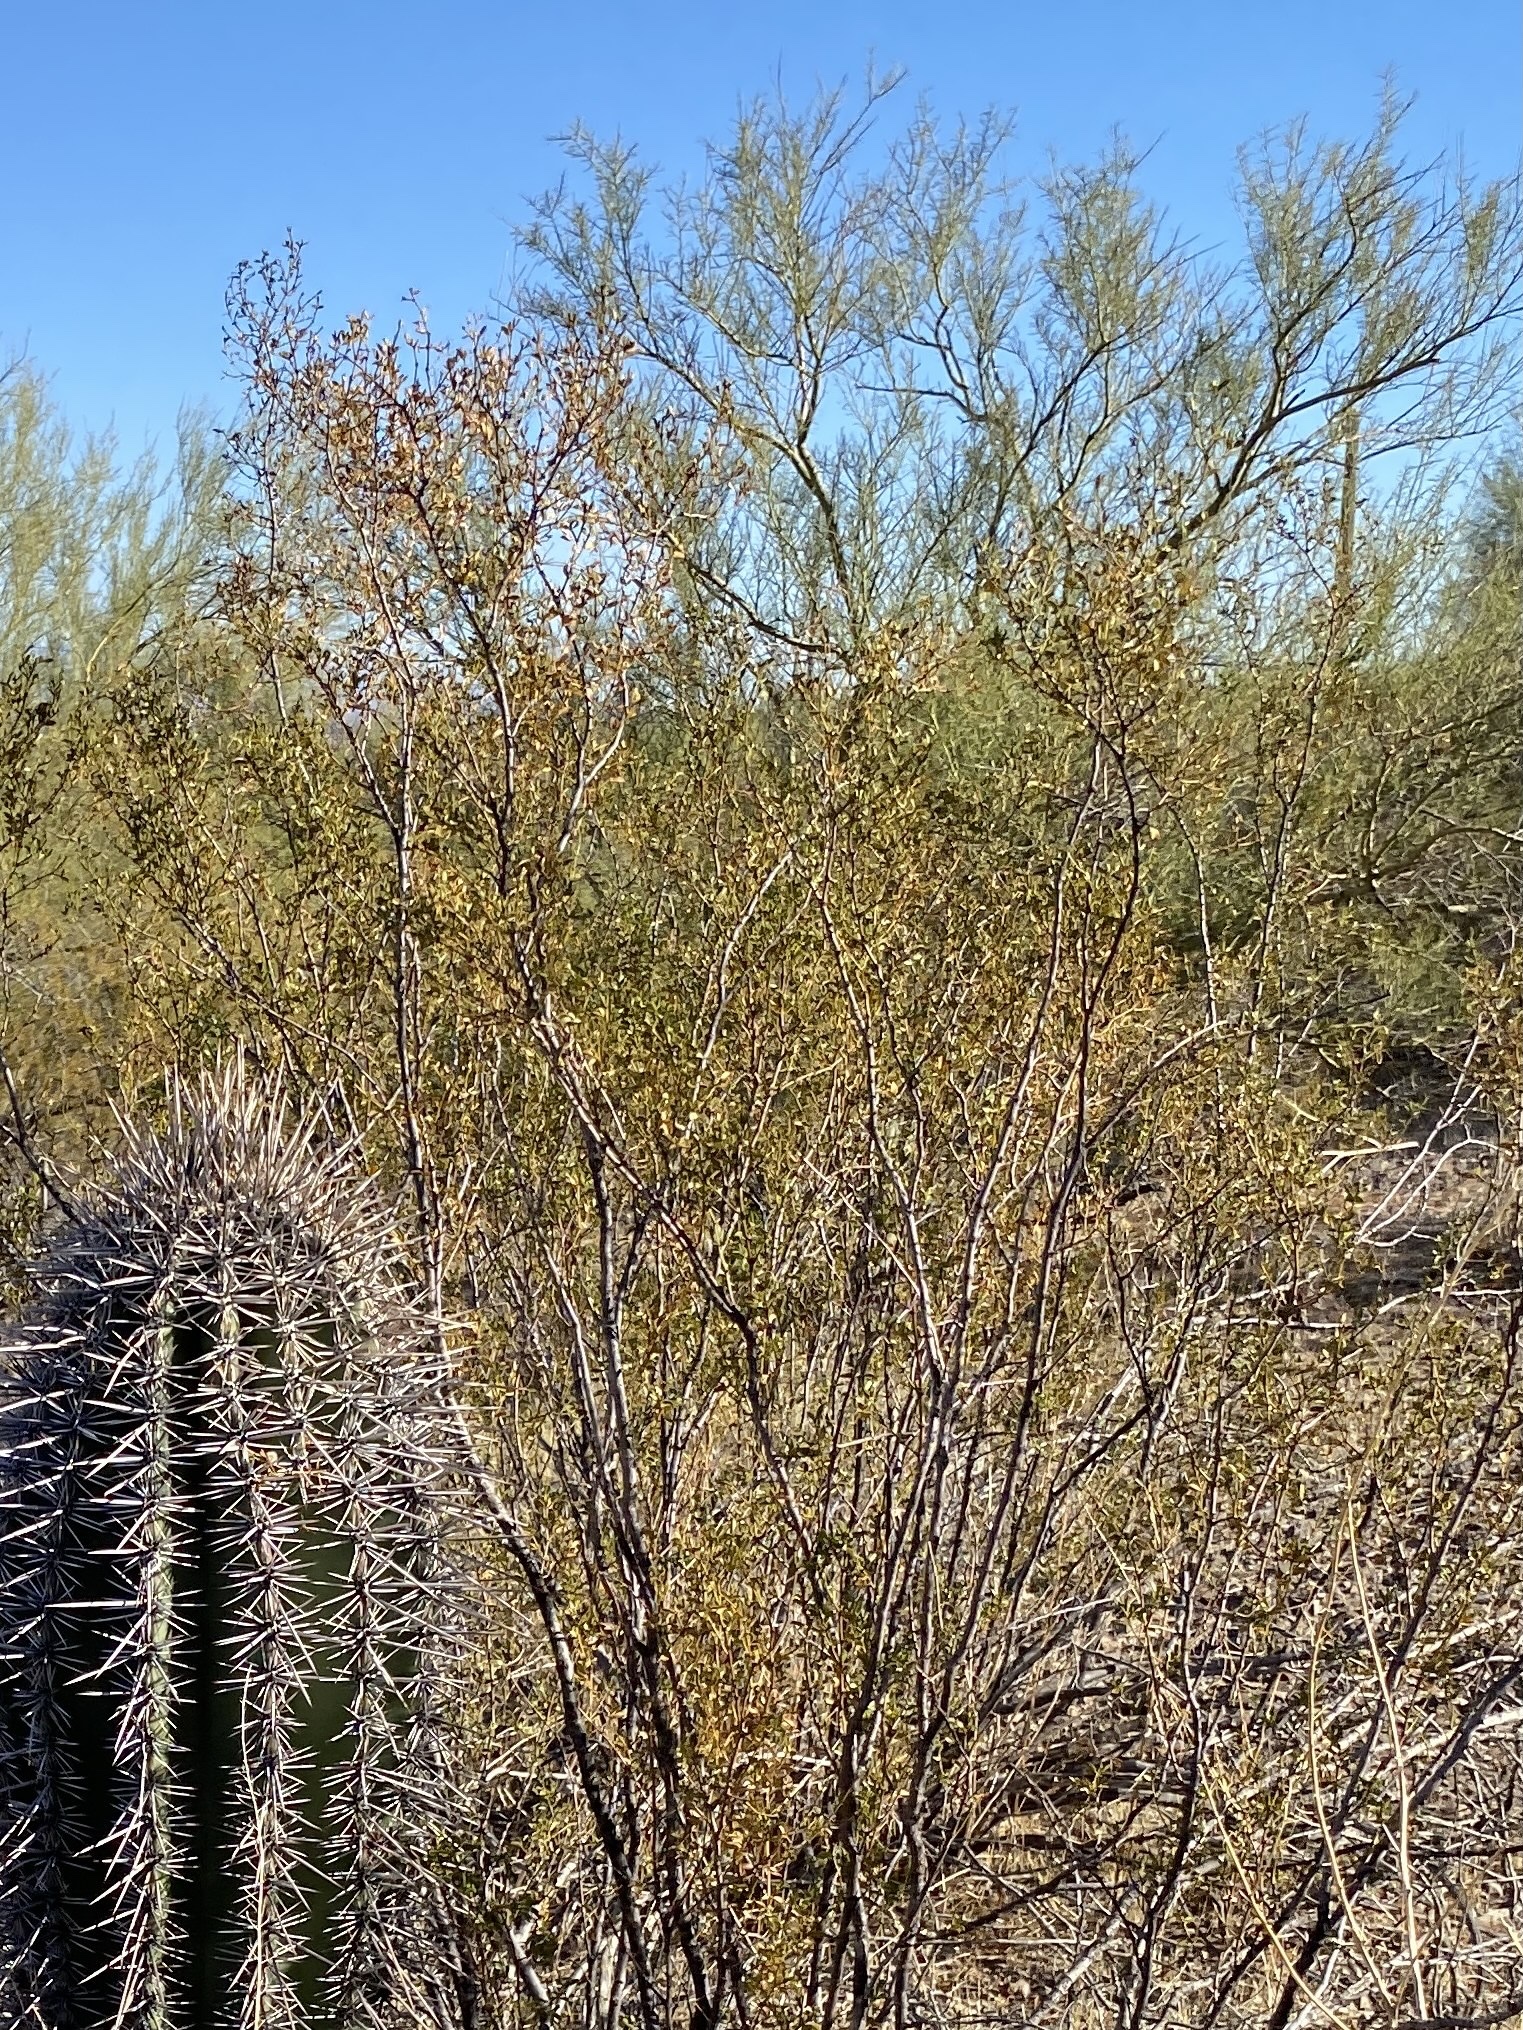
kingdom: Plantae
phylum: Tracheophyta
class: Magnoliopsida
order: Zygophyllales
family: Zygophyllaceae
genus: Larrea
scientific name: Larrea tridentata
